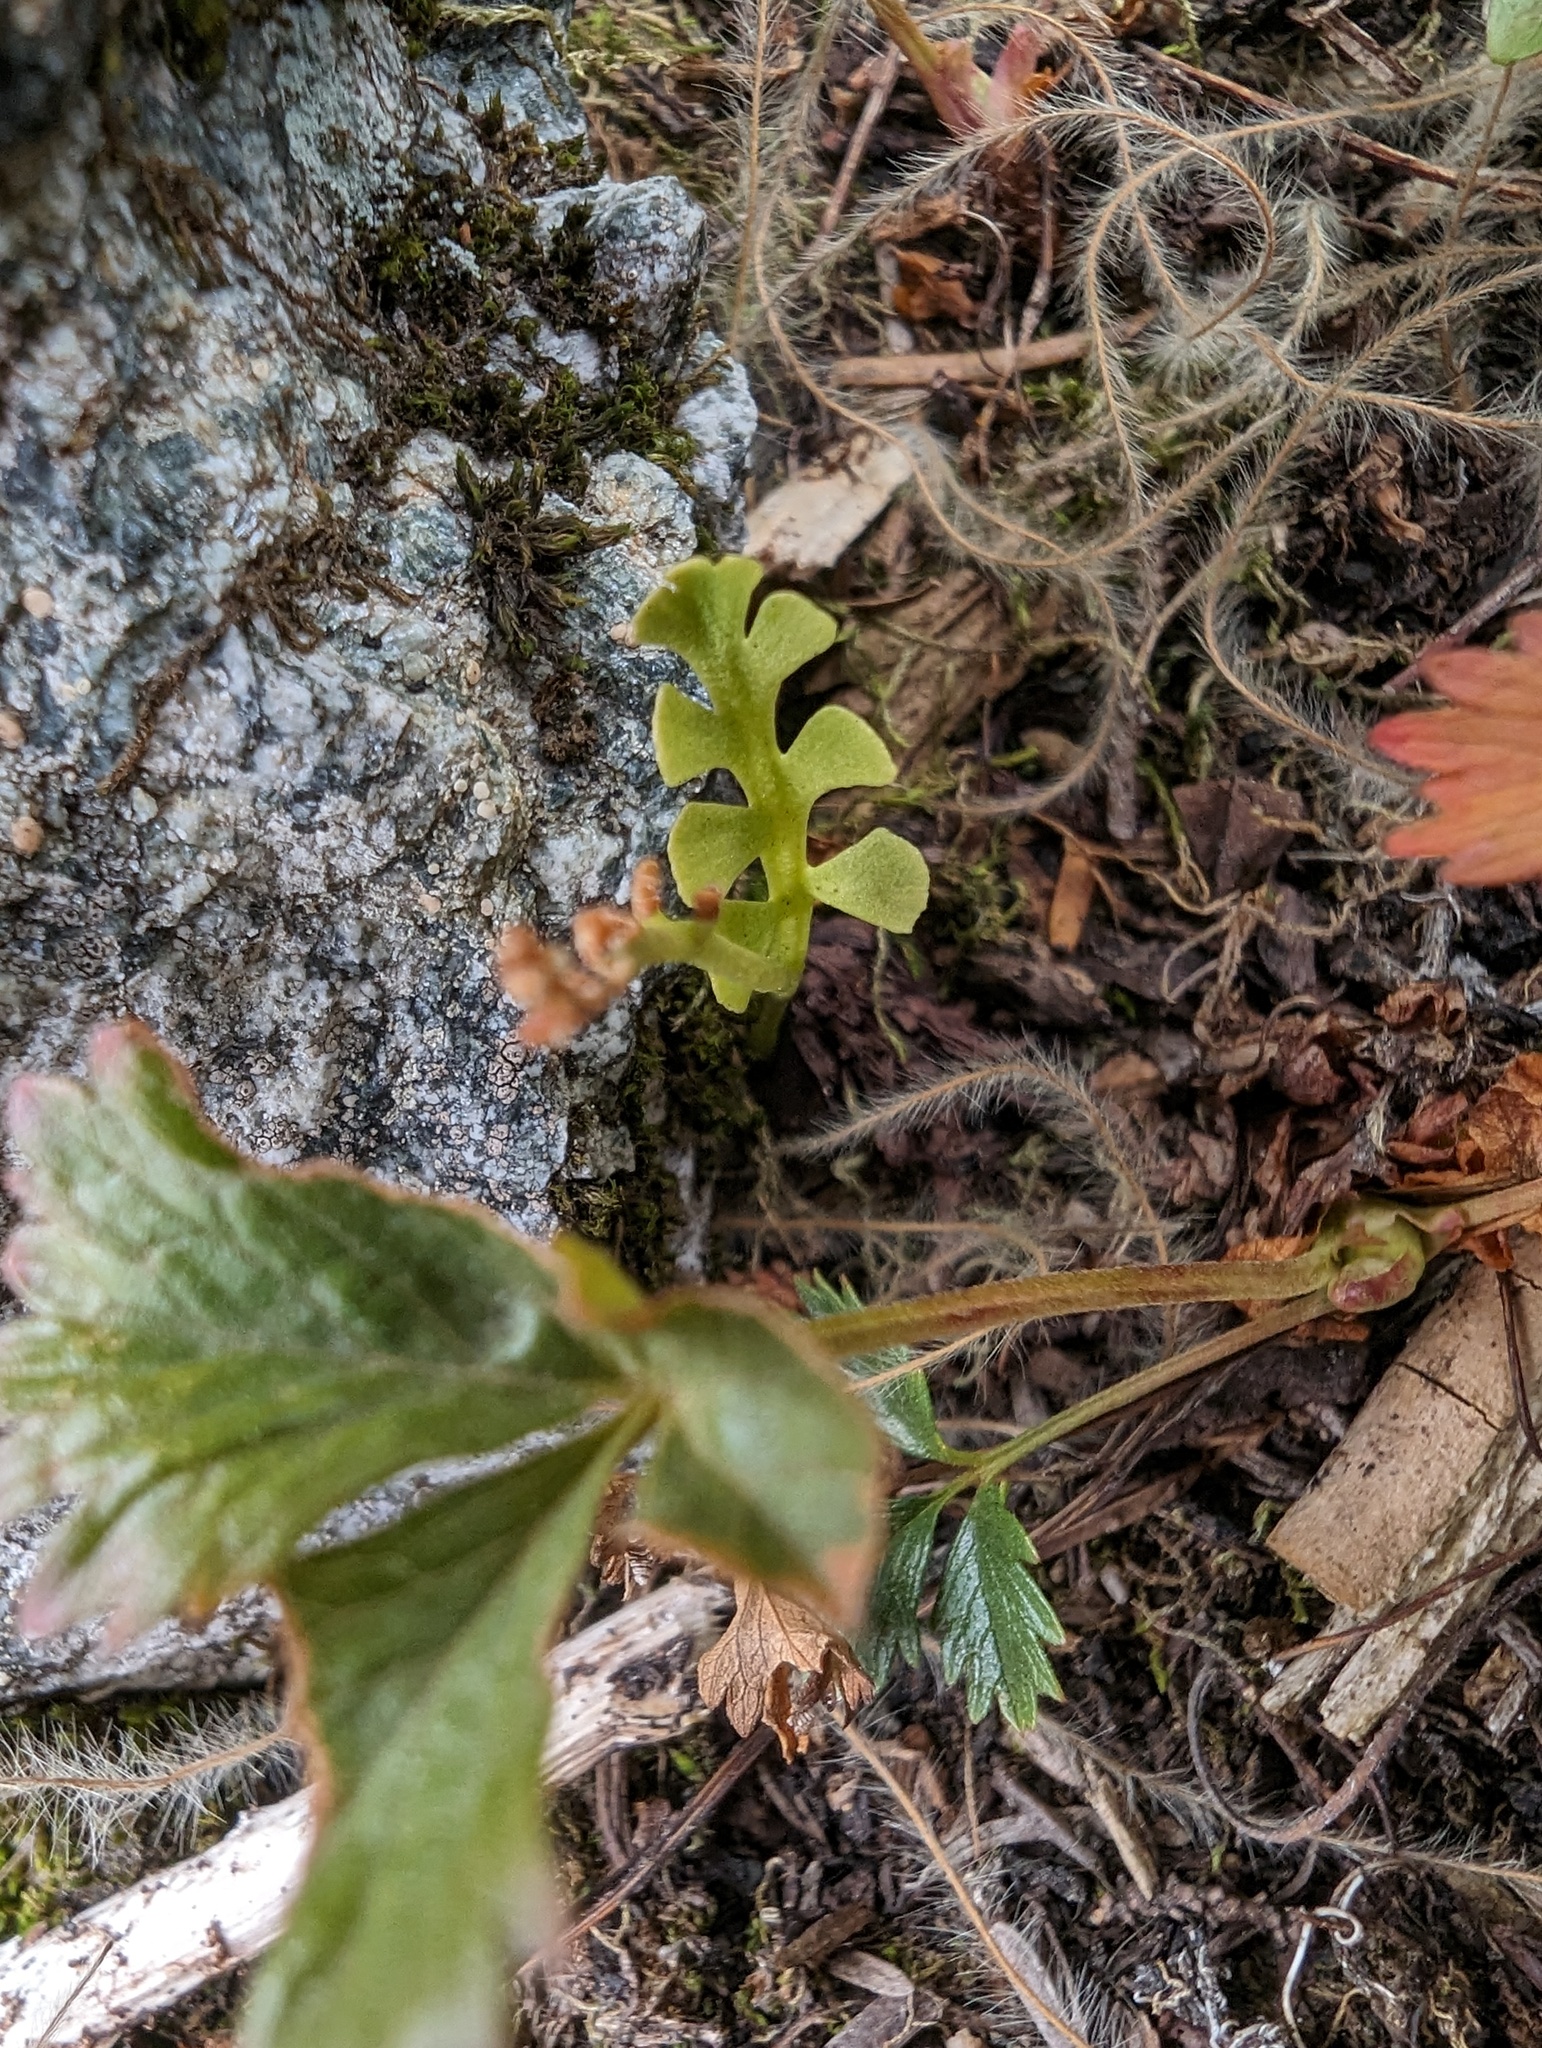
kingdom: Plantae
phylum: Tracheophyta
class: Polypodiopsida
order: Ophioglossales
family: Ophioglossaceae
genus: Botrychium
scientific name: Botrychium minganense
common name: Mingan grapefern
